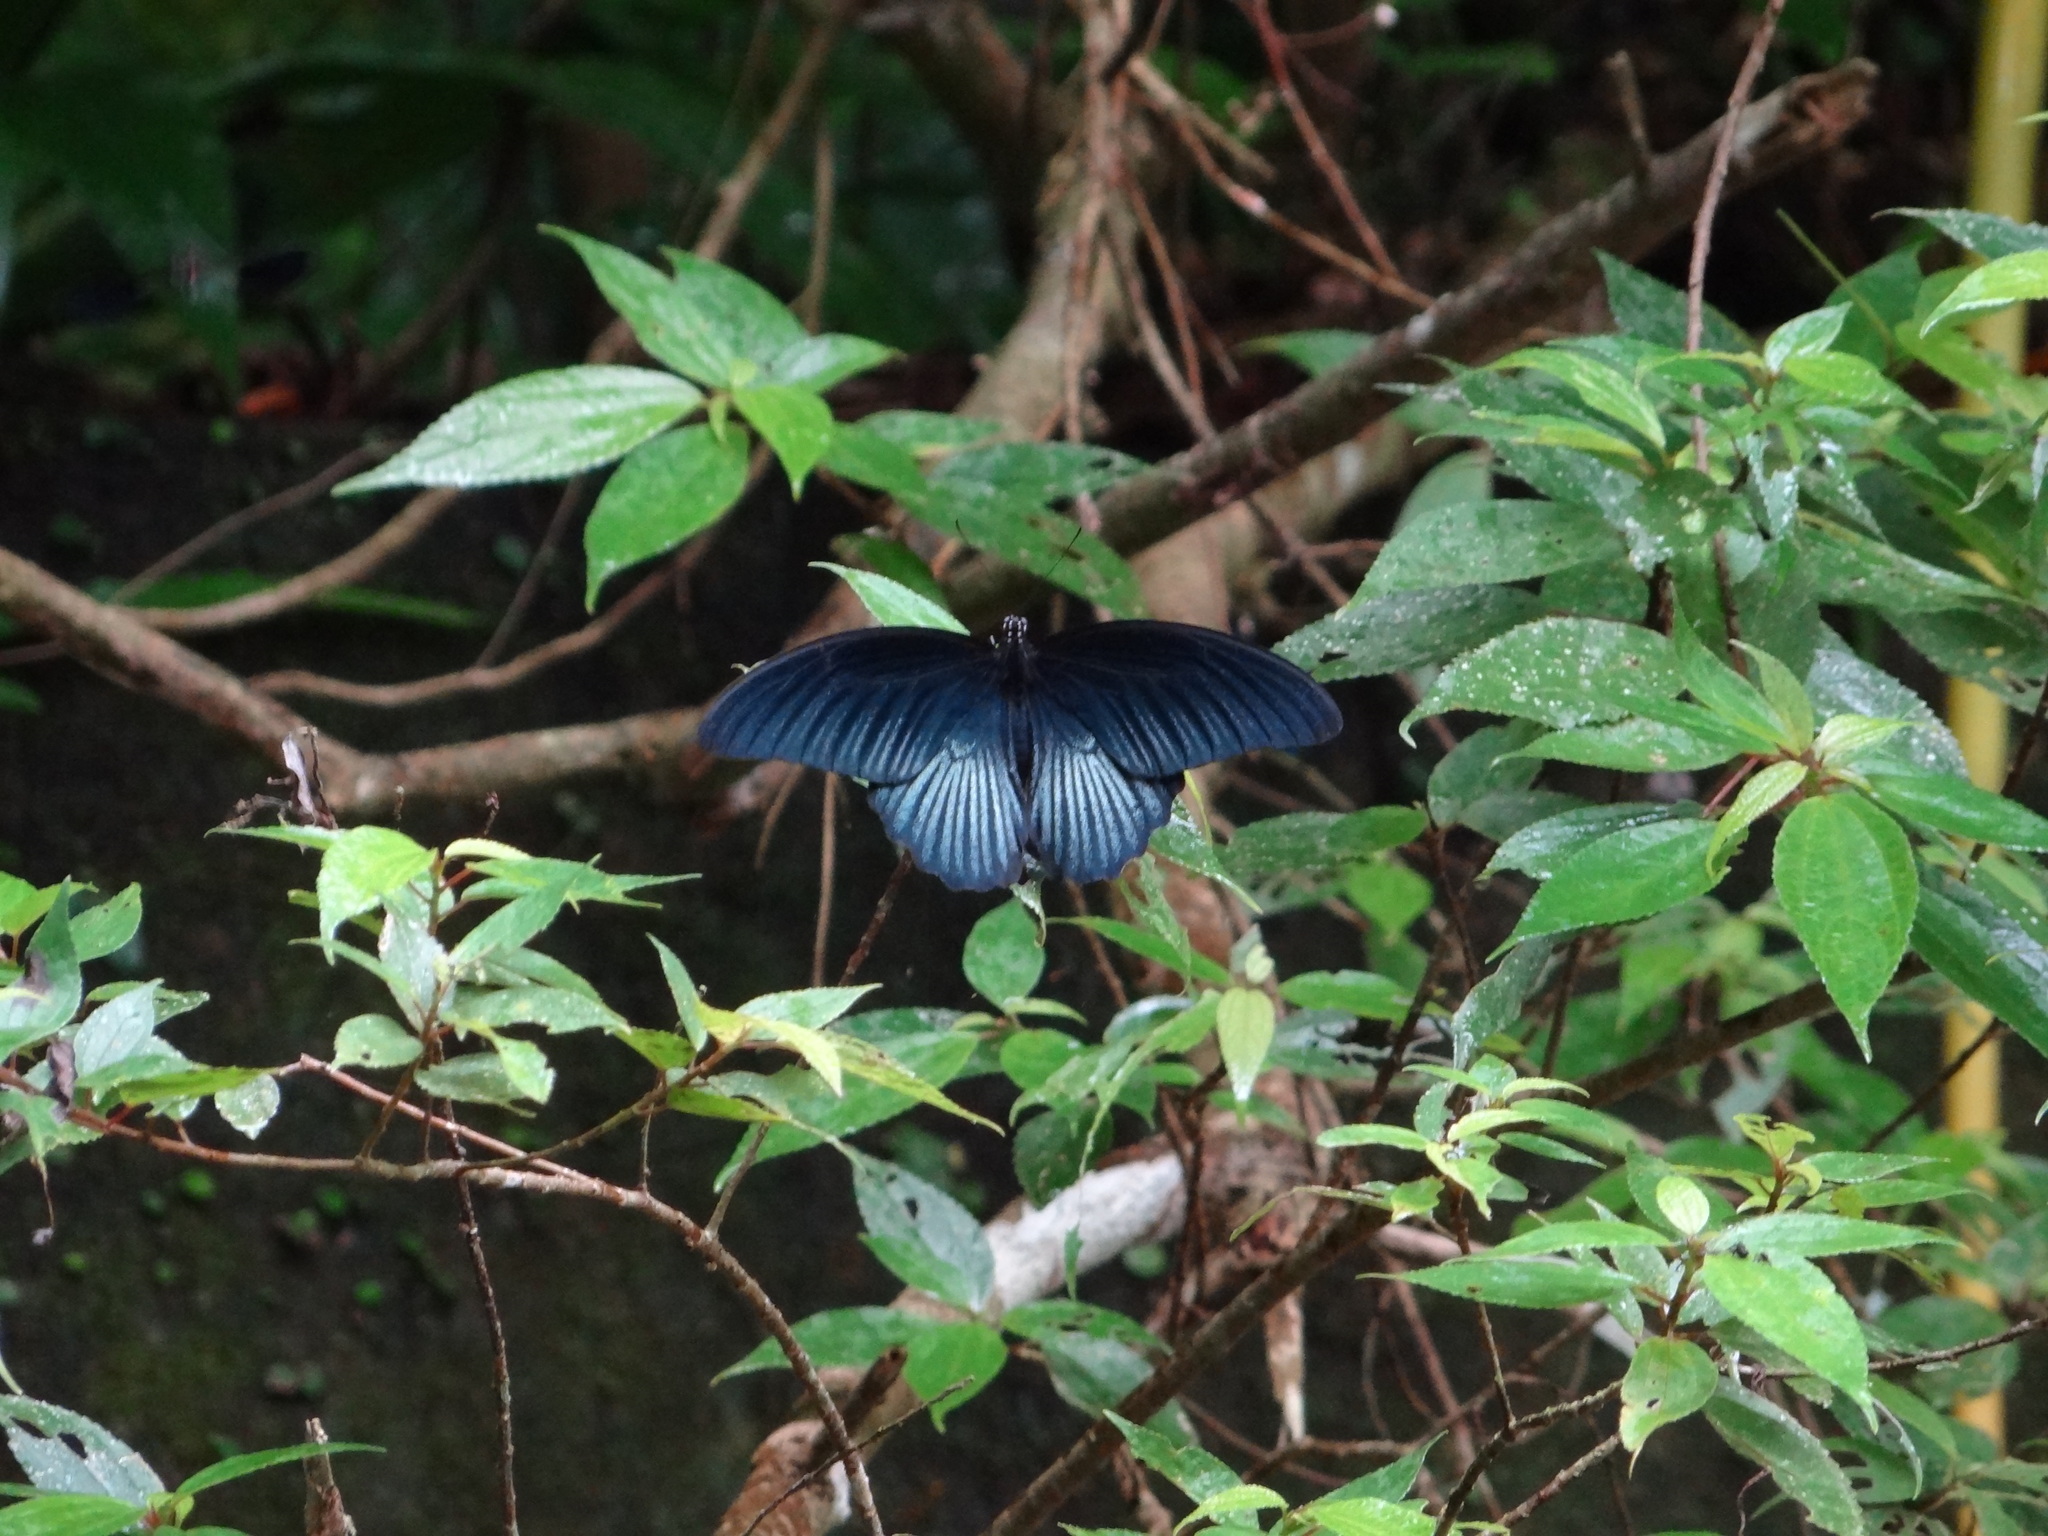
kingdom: Animalia
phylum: Arthropoda
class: Insecta
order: Lepidoptera
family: Papilionidae
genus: Papilio
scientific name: Papilio memnon
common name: Great mormon
